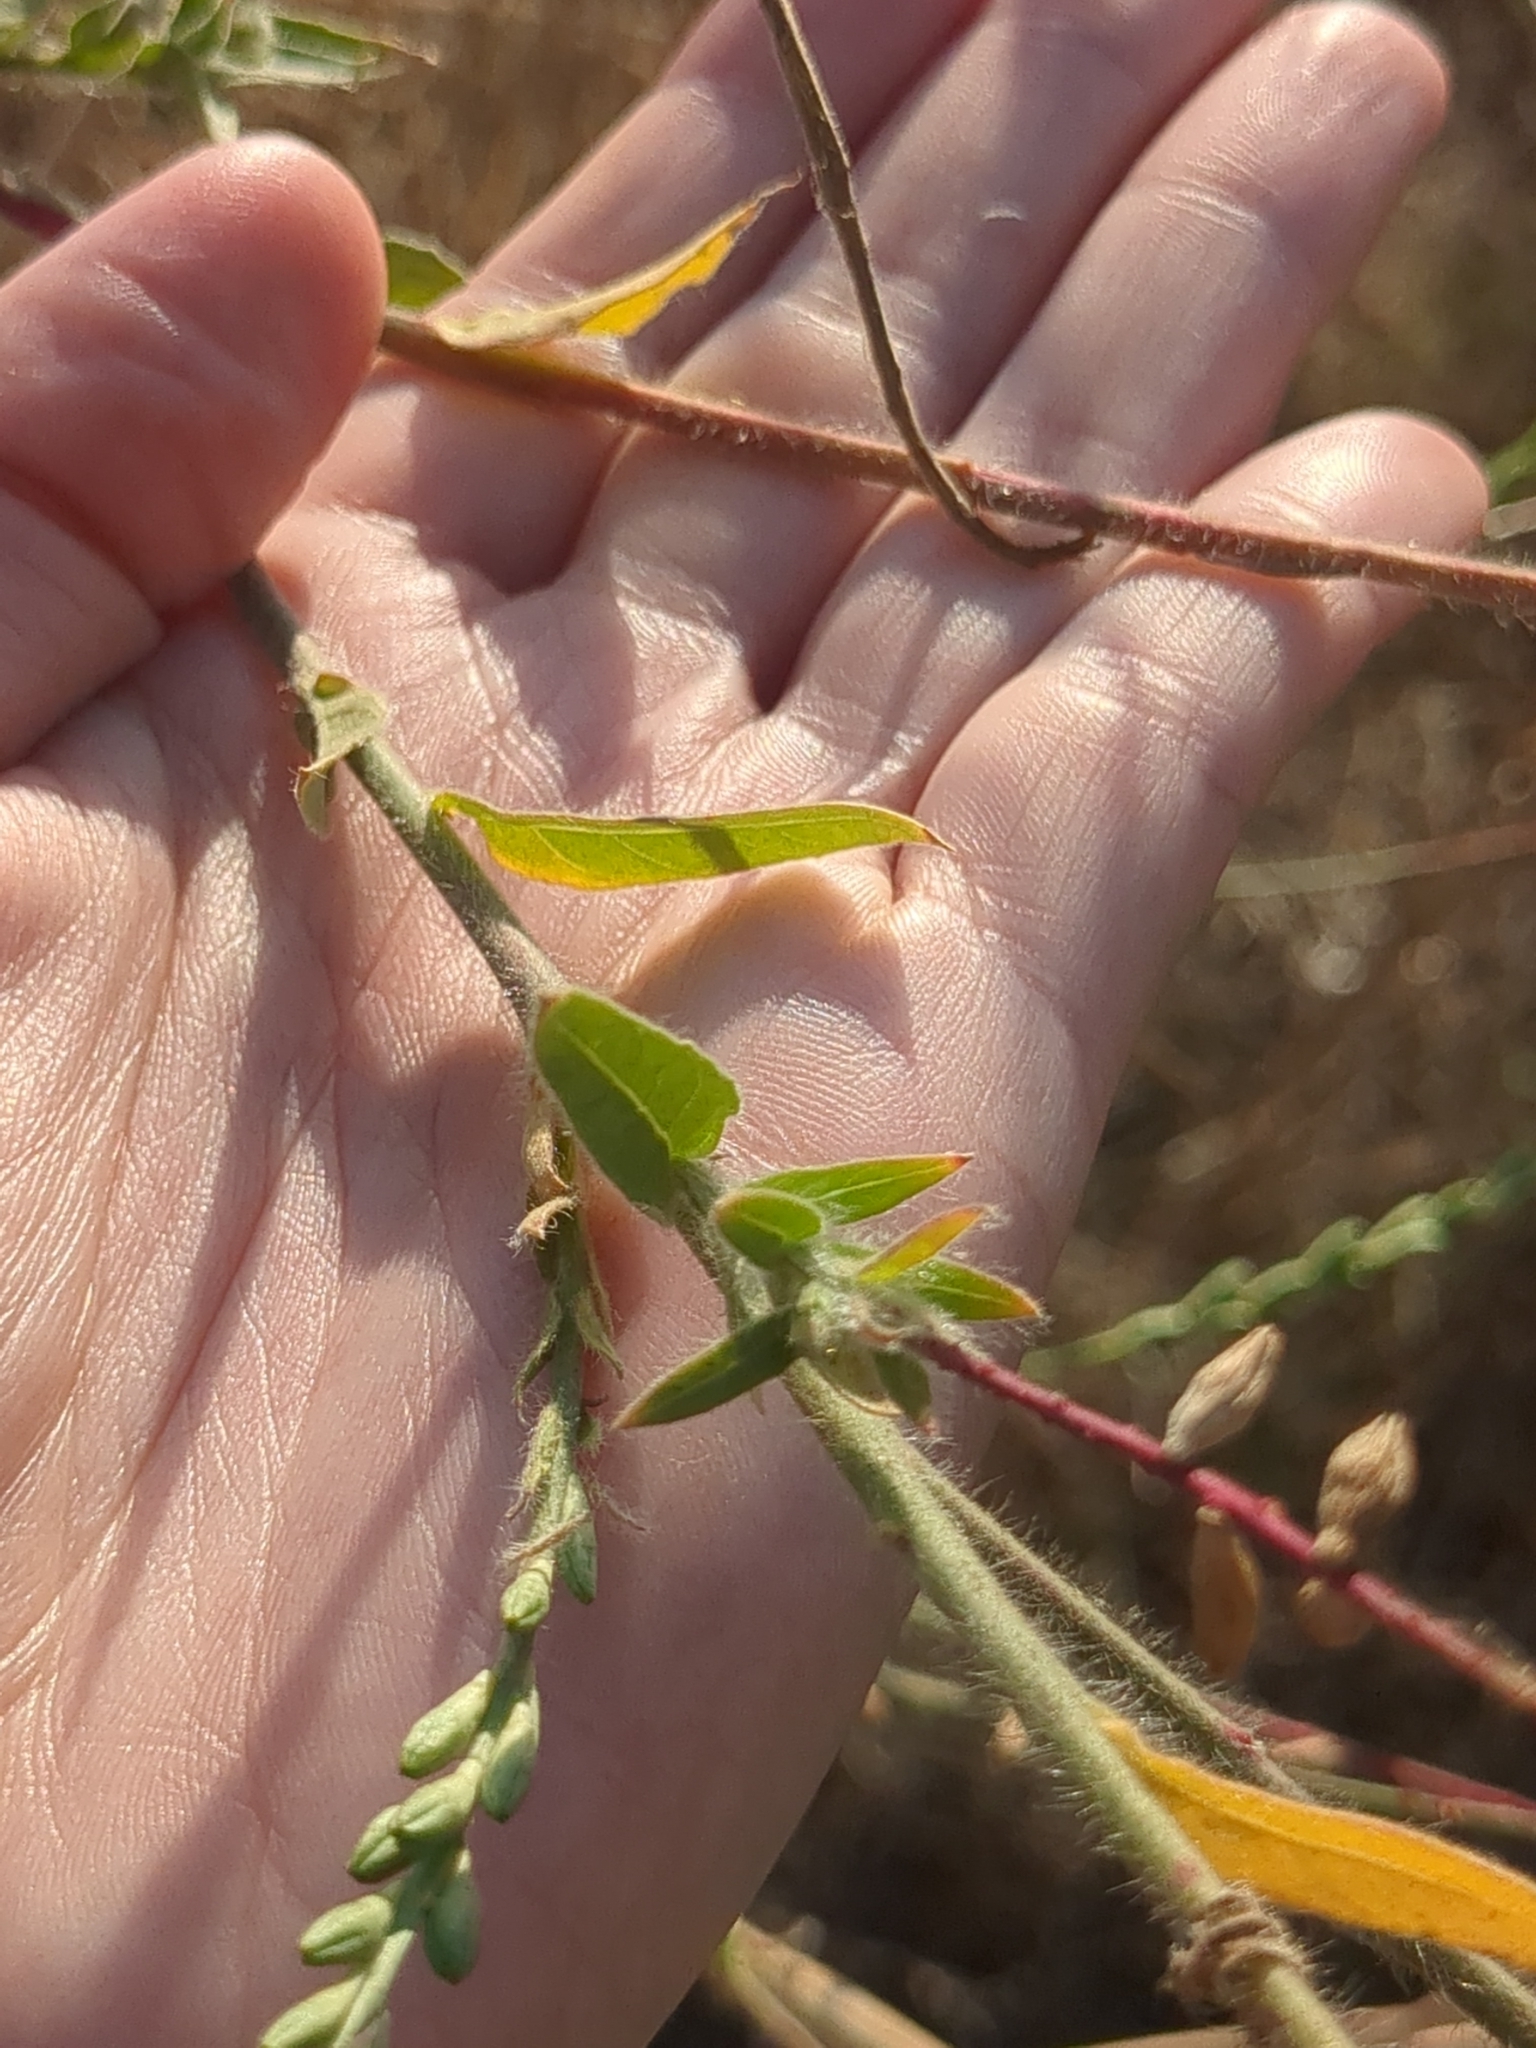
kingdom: Plantae
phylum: Tracheophyta
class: Magnoliopsida
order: Myrtales
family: Onagraceae
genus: Oenothera
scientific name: Oenothera curtiflora
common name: Velvetweed
